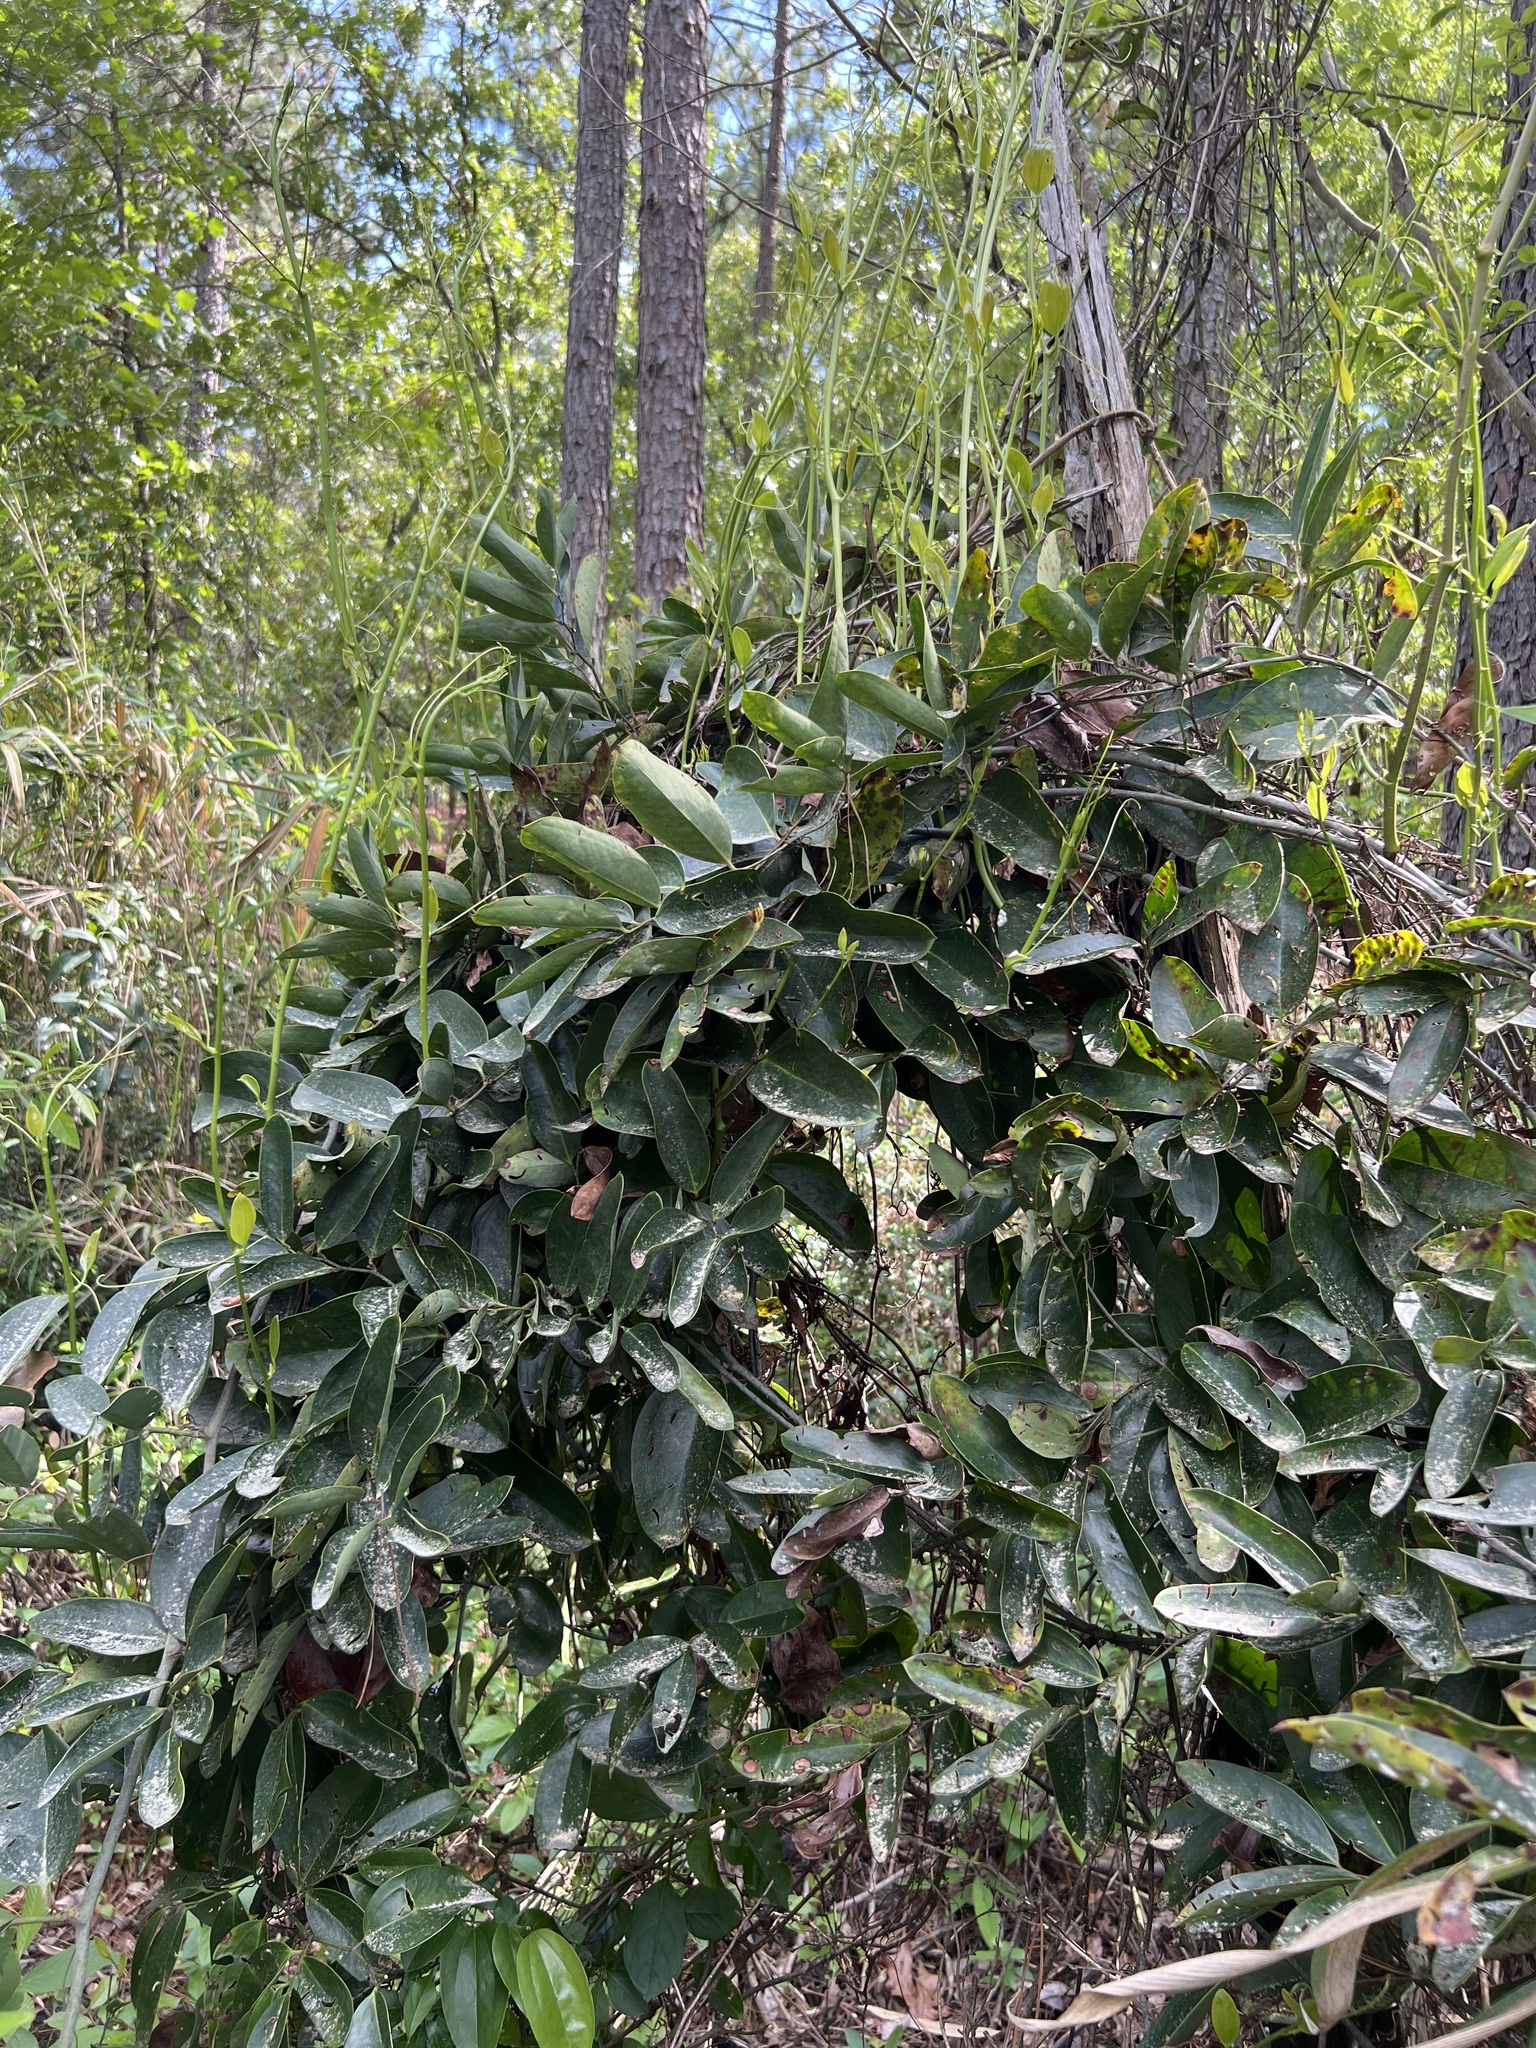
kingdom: Plantae
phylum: Tracheophyta
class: Liliopsida
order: Liliales
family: Smilacaceae
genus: Smilax
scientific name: Smilax laurifolia
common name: Bamboovine
